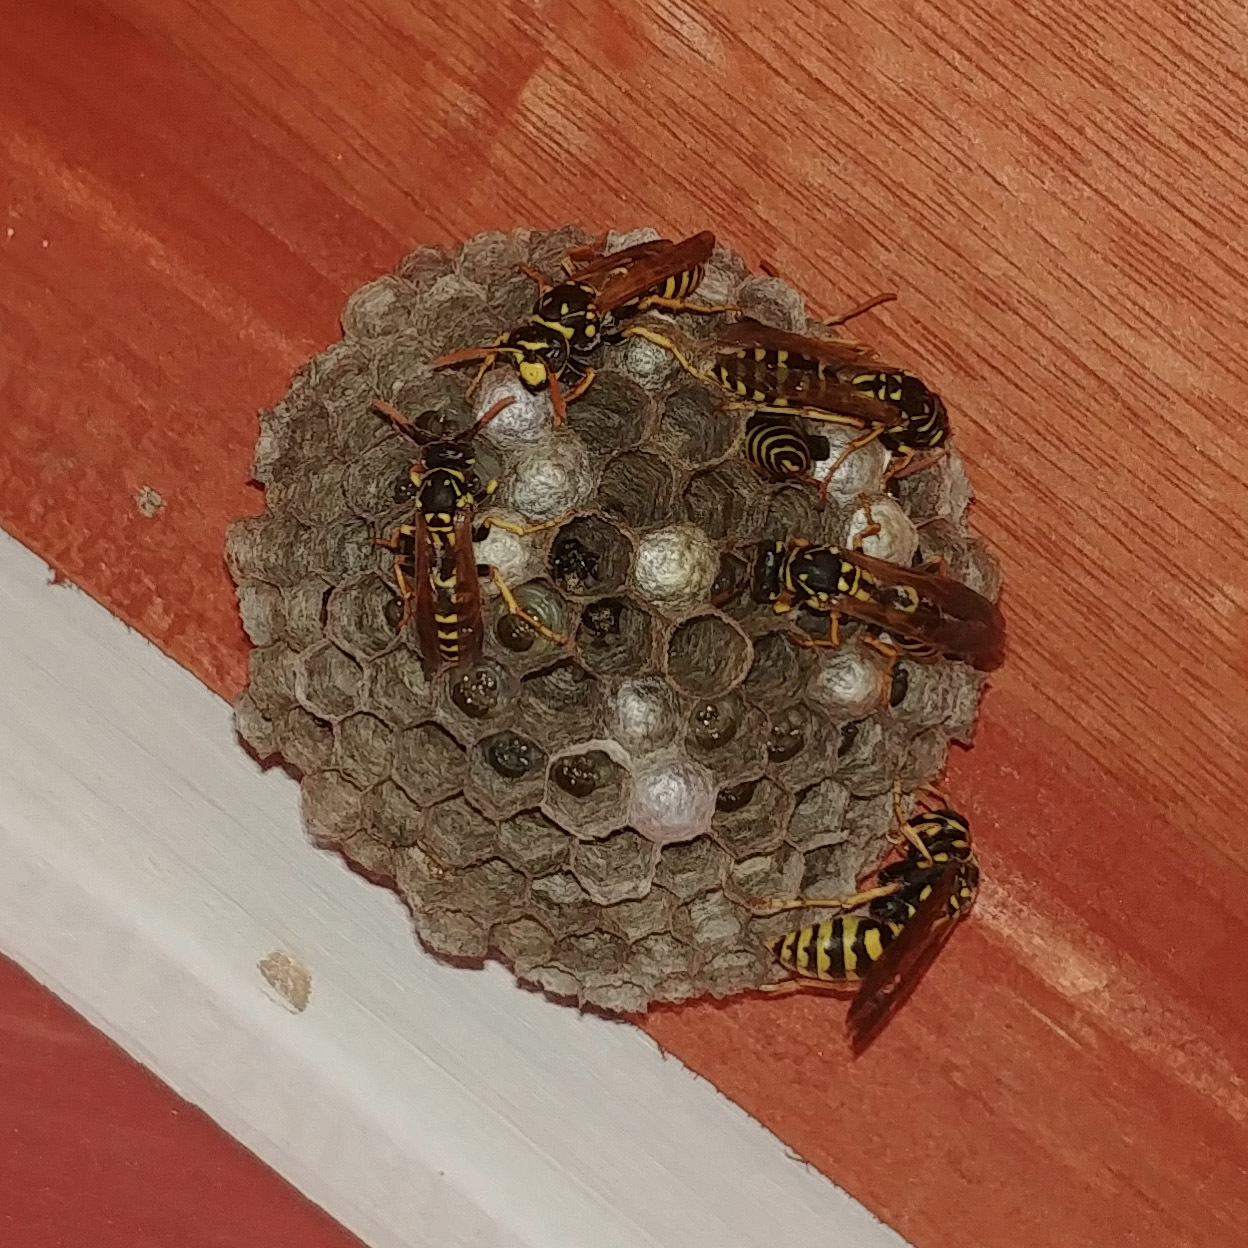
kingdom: Animalia
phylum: Arthropoda
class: Insecta
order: Hymenoptera
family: Eumenidae
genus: Polistes
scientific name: Polistes dominula
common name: Paper wasp
